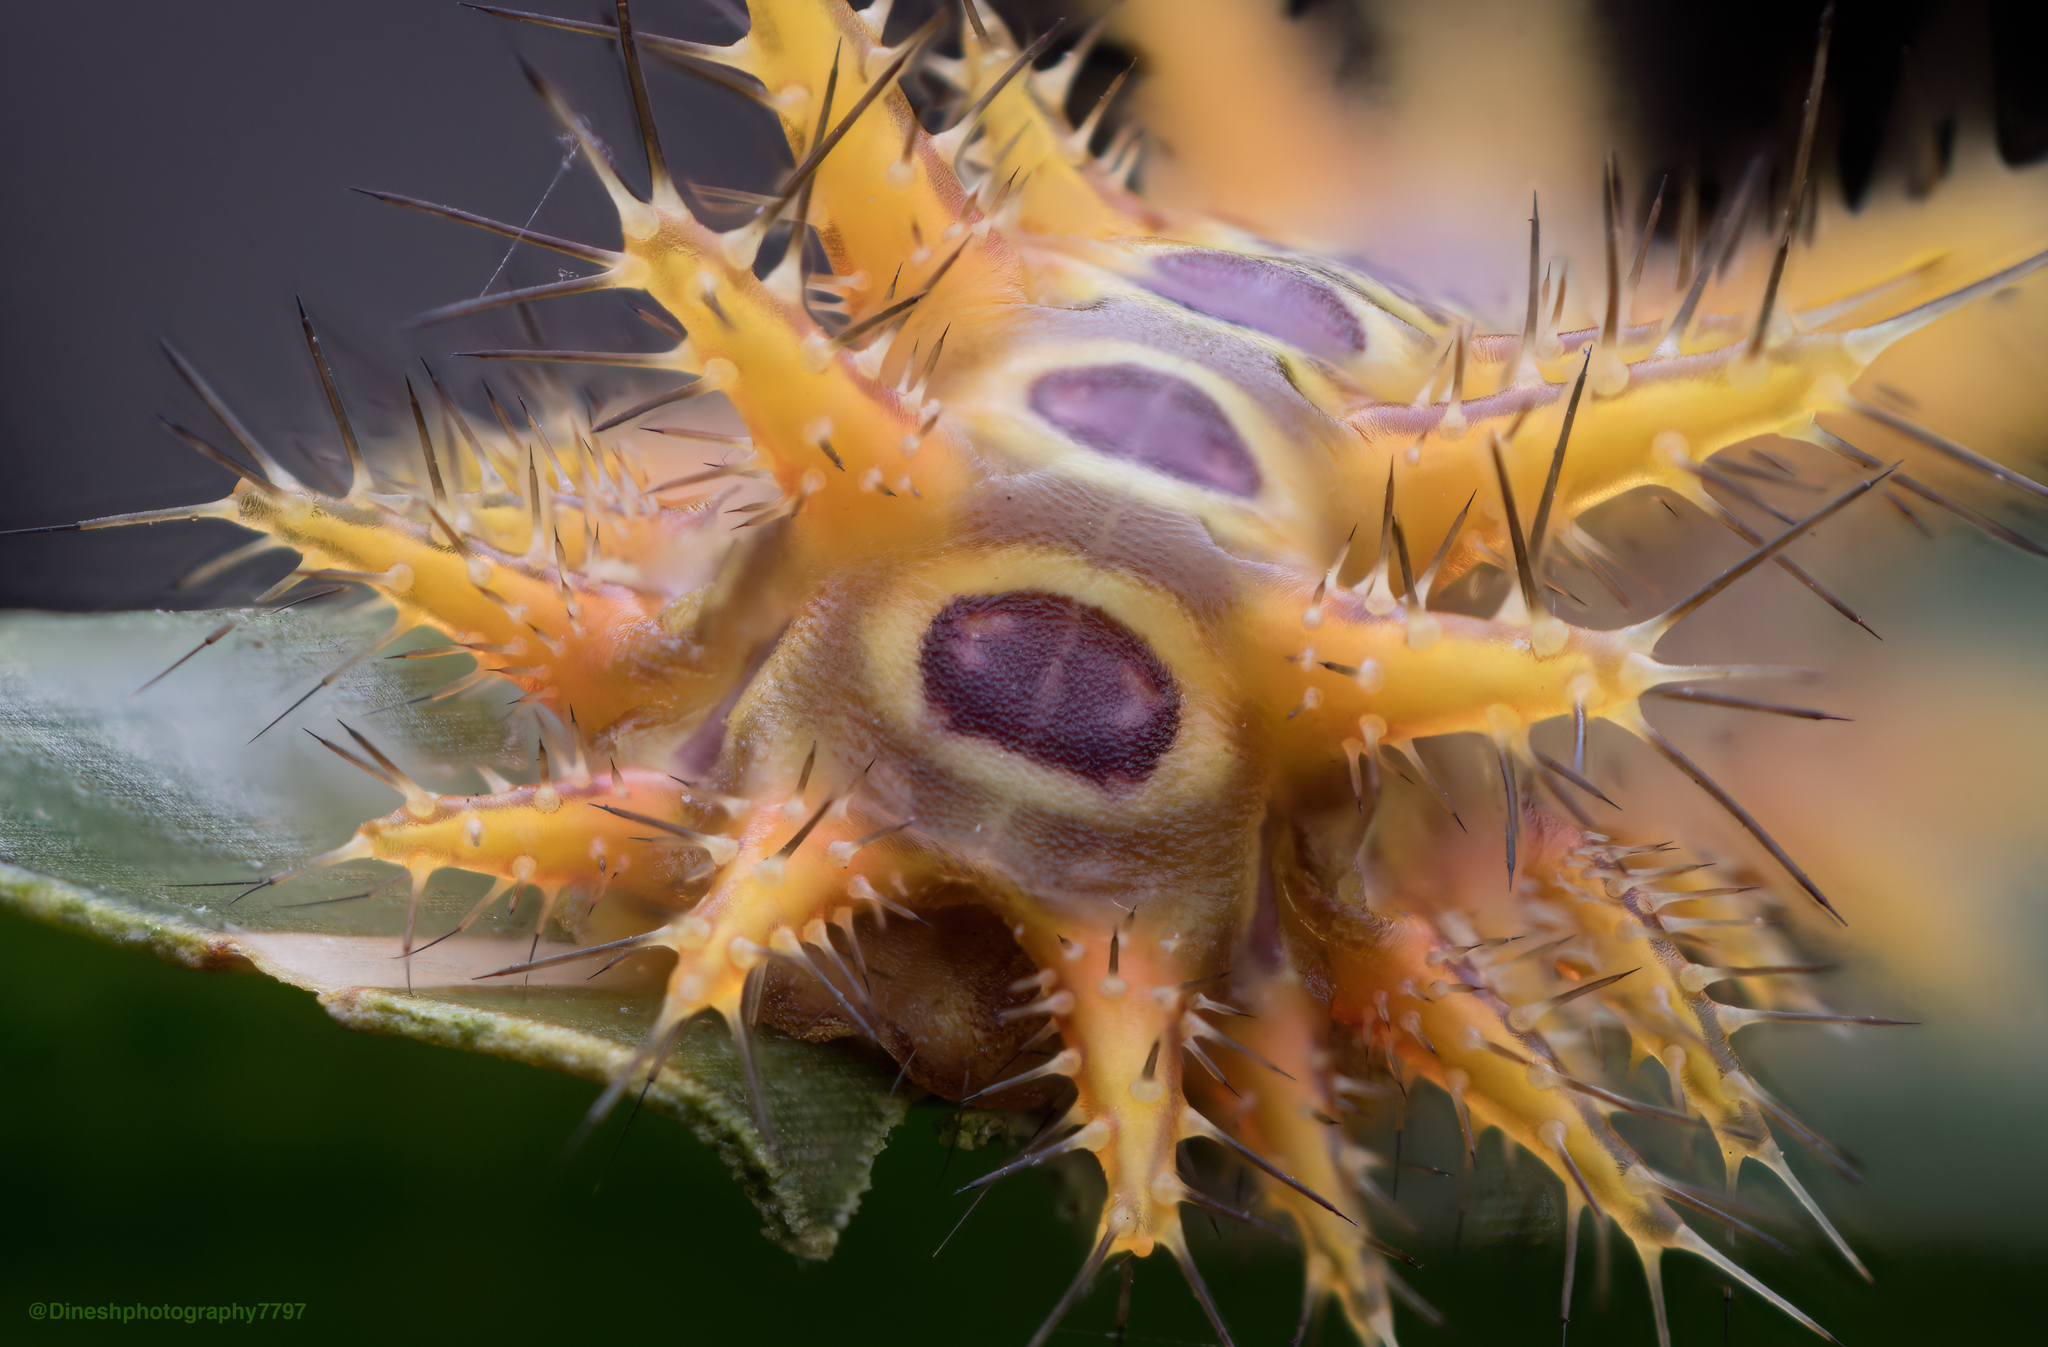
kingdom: Animalia
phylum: Arthropoda
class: Insecta
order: Lepidoptera
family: Limacodidae
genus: Thosea
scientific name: Thosea aperiens
